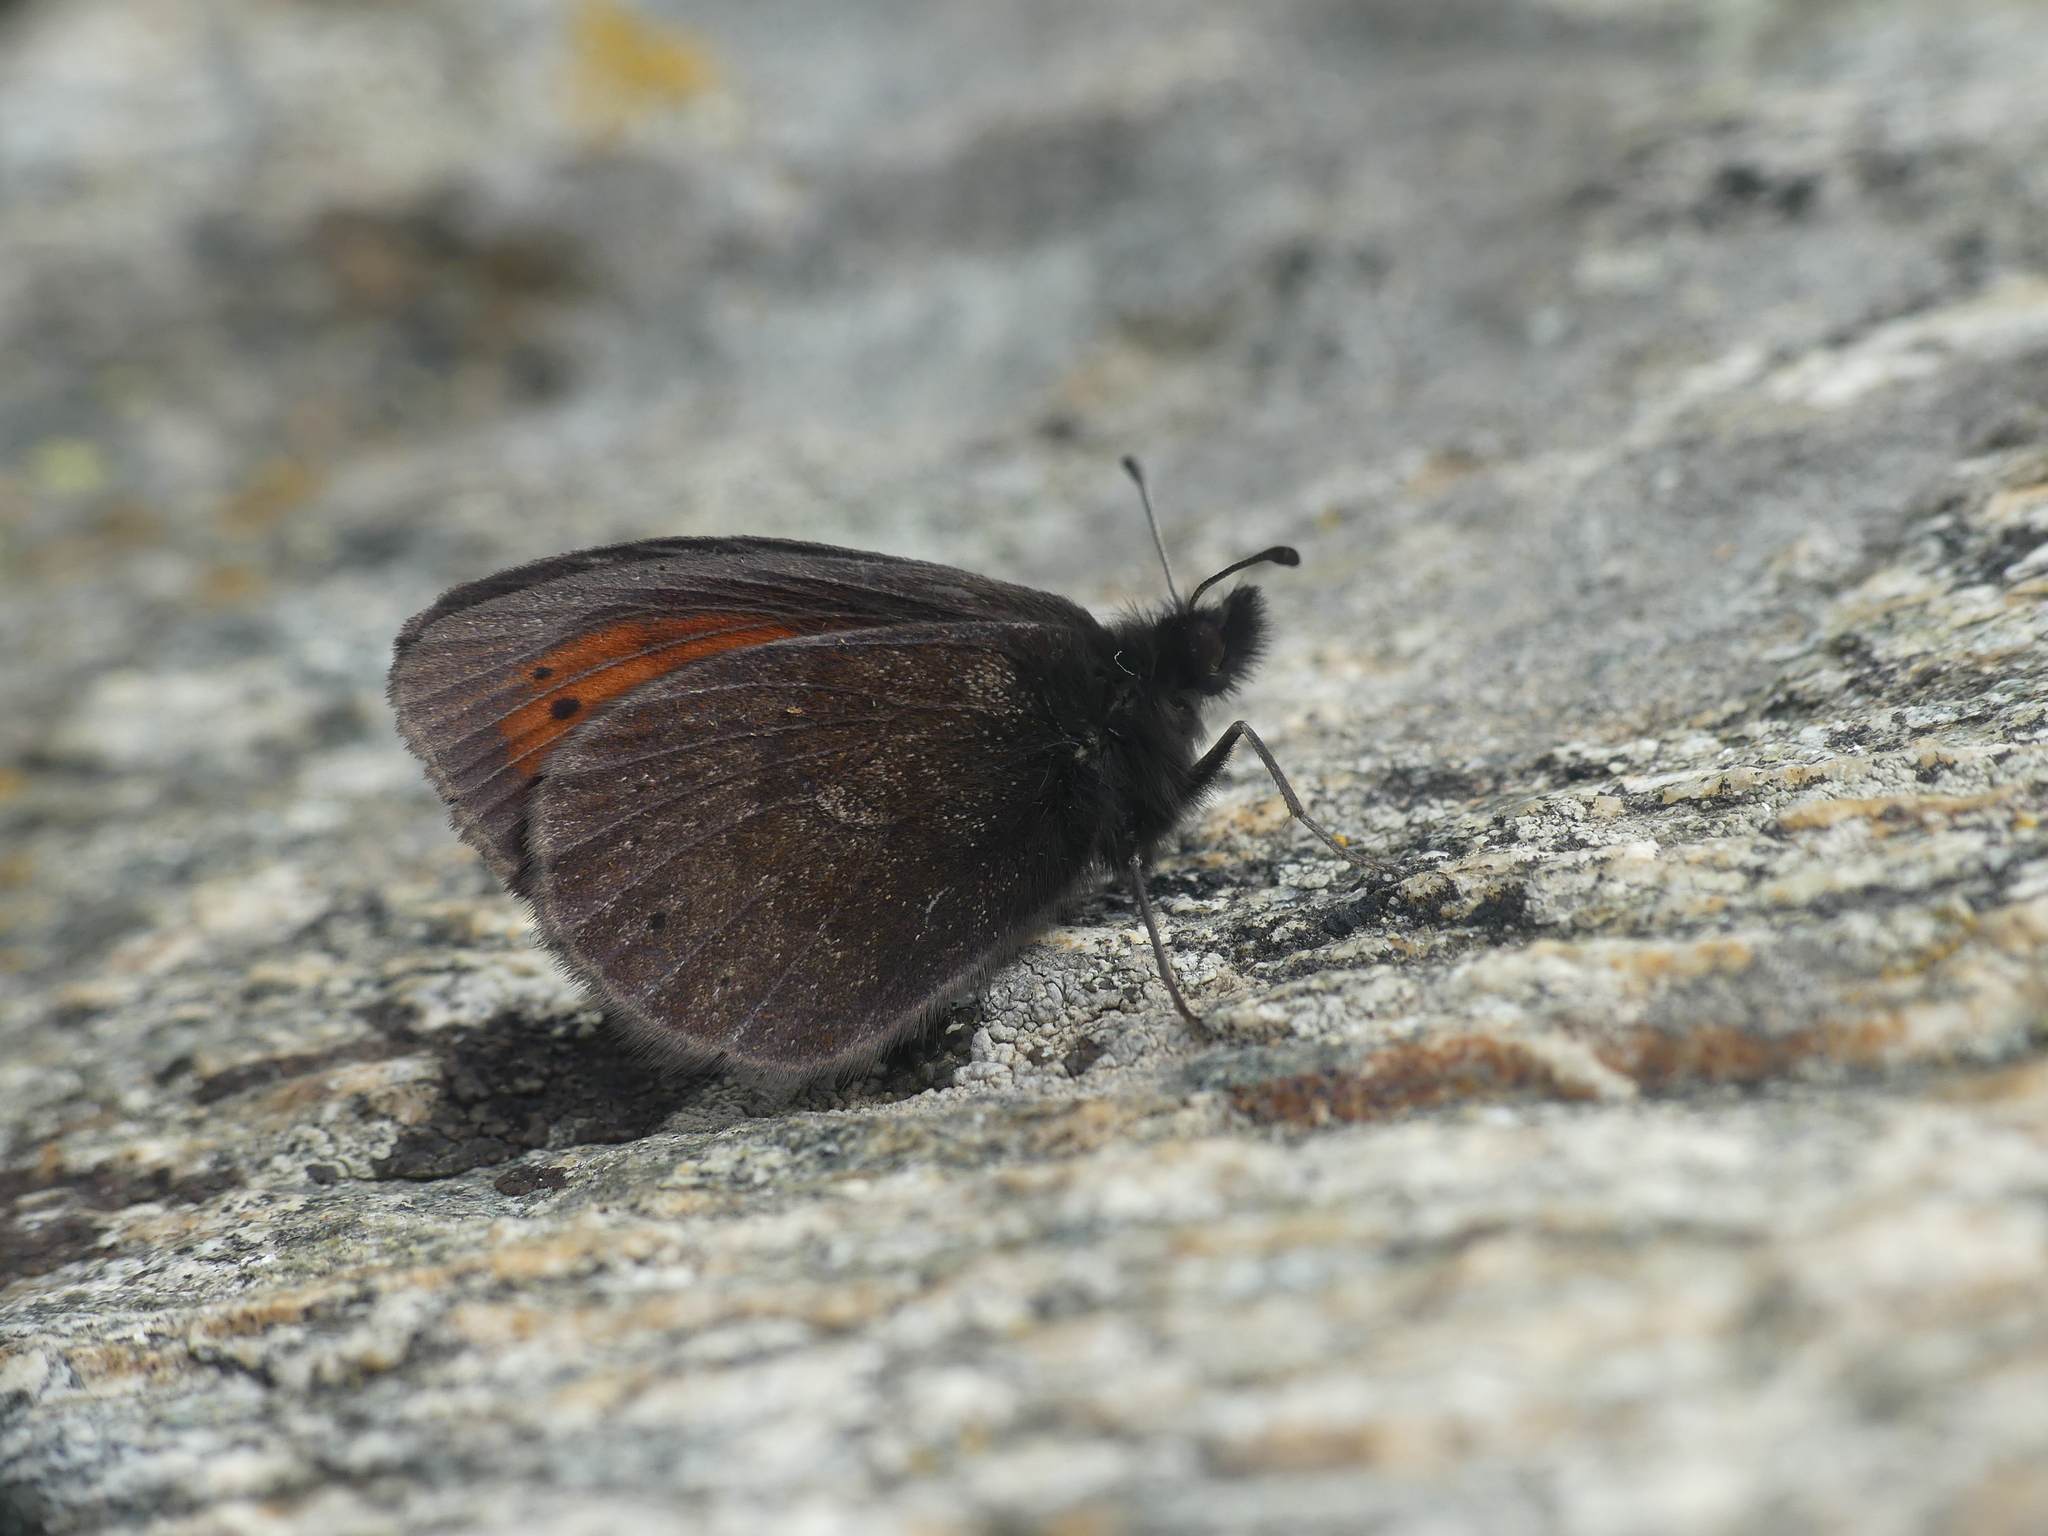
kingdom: Animalia
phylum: Arthropoda
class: Insecta
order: Lepidoptera
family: Nymphalidae
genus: Erebia
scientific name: Erebia christi
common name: Raetzer's ringlet
